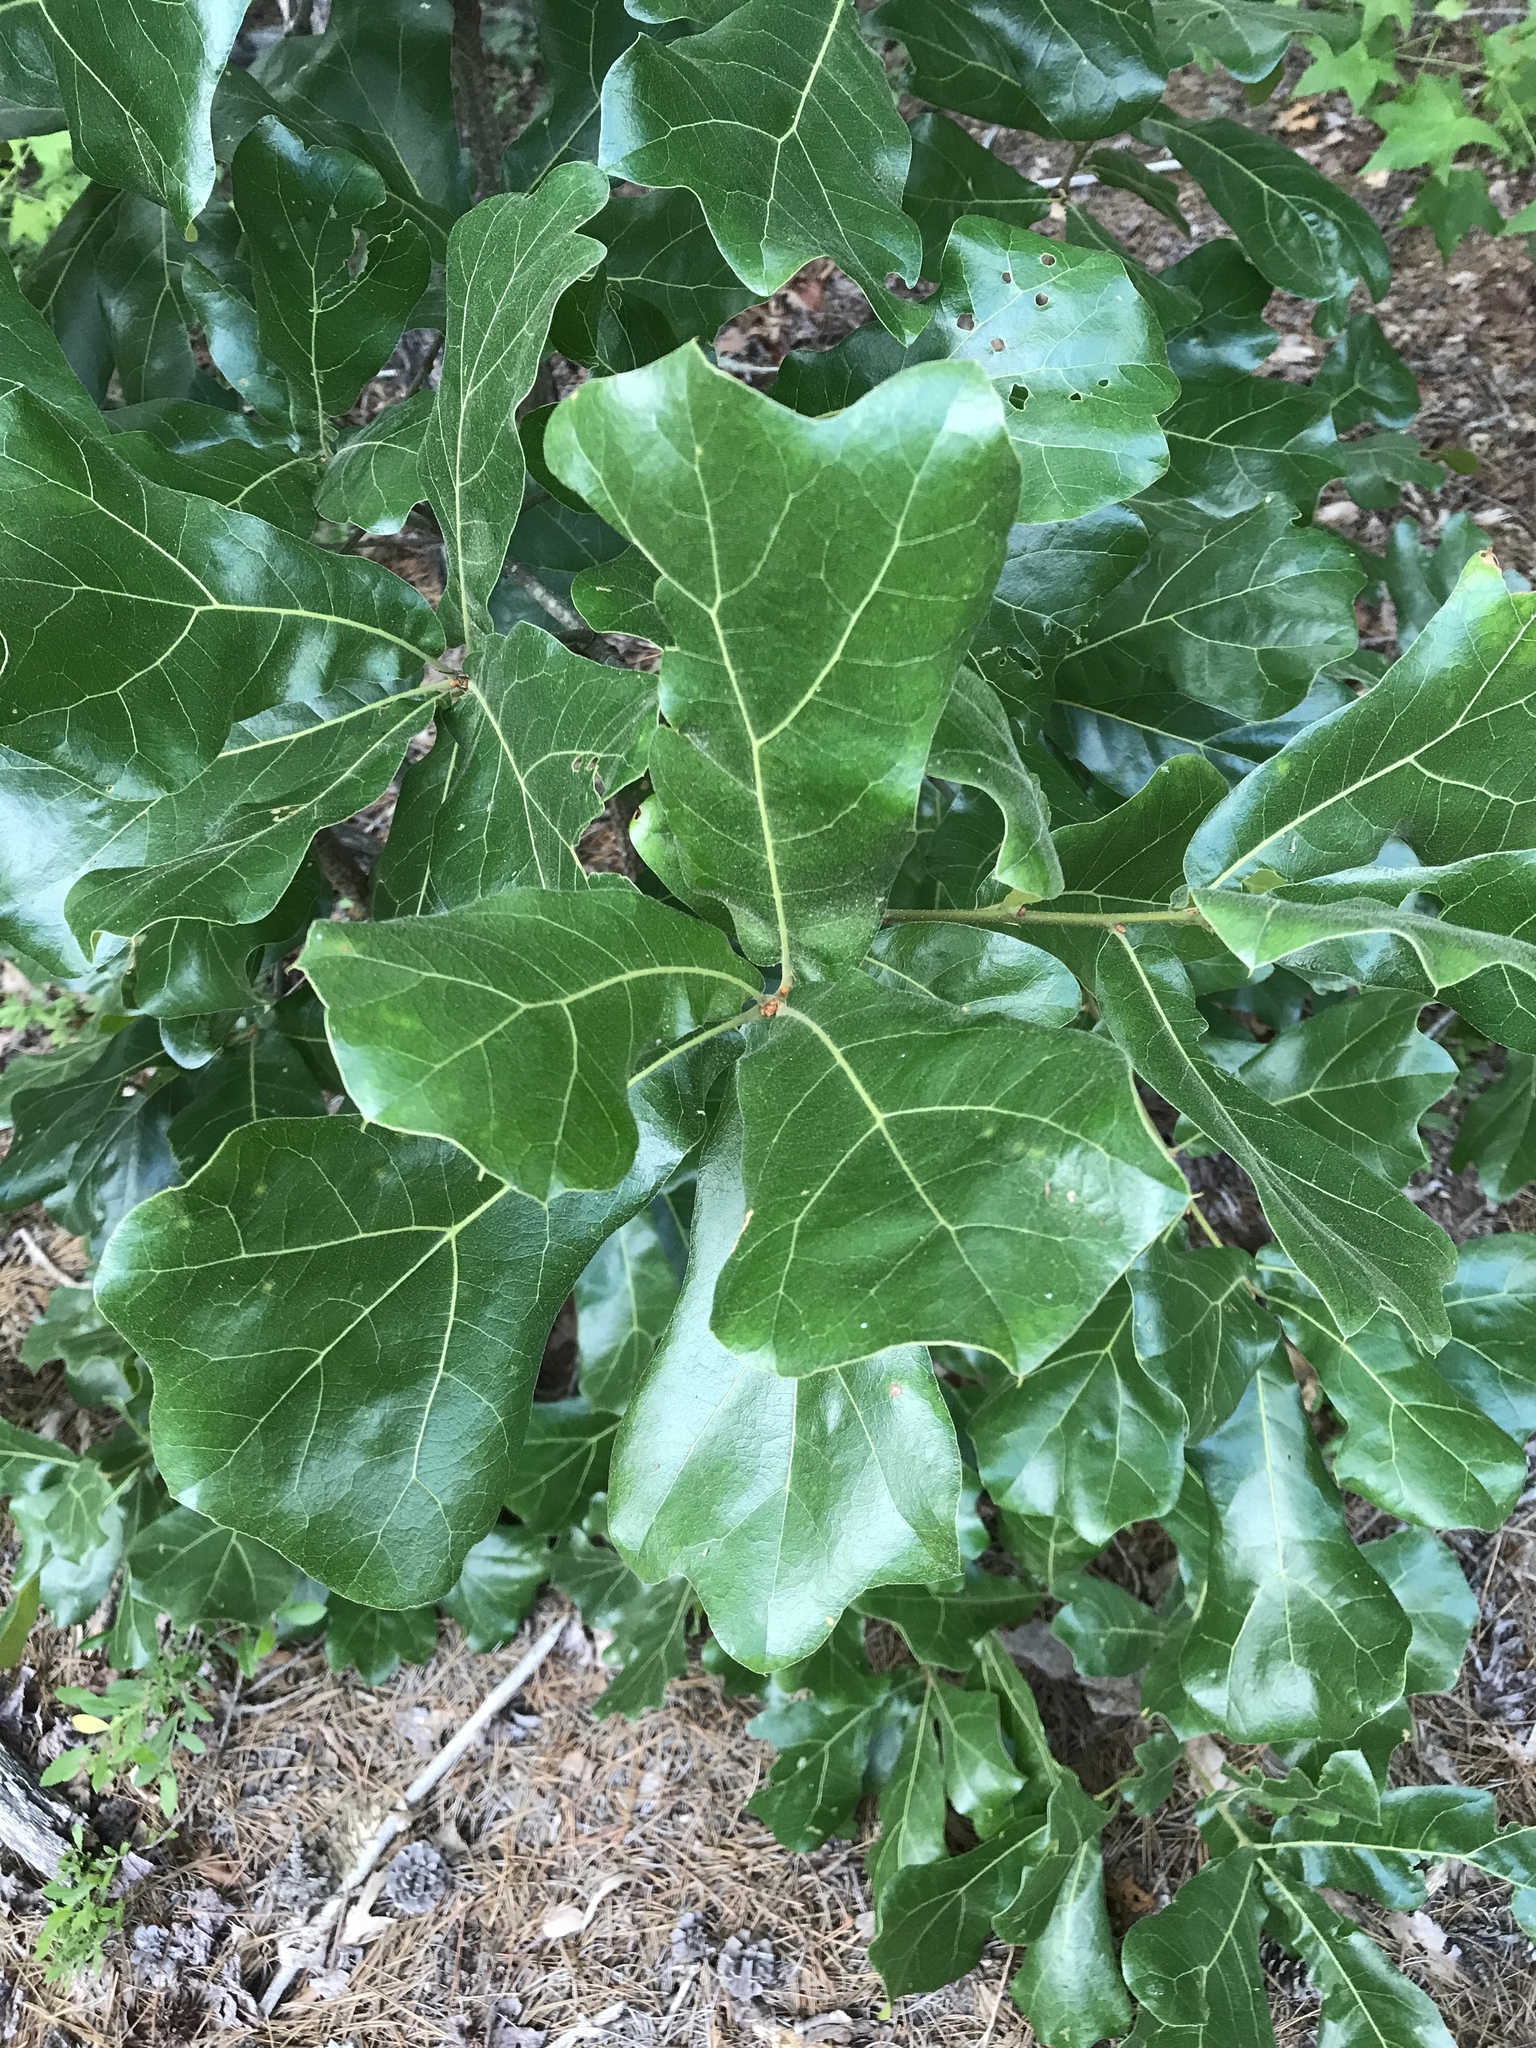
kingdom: Plantae
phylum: Tracheophyta
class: Magnoliopsida
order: Fagales
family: Fagaceae
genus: Quercus
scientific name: Quercus marilandica
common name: Blackjack oak
